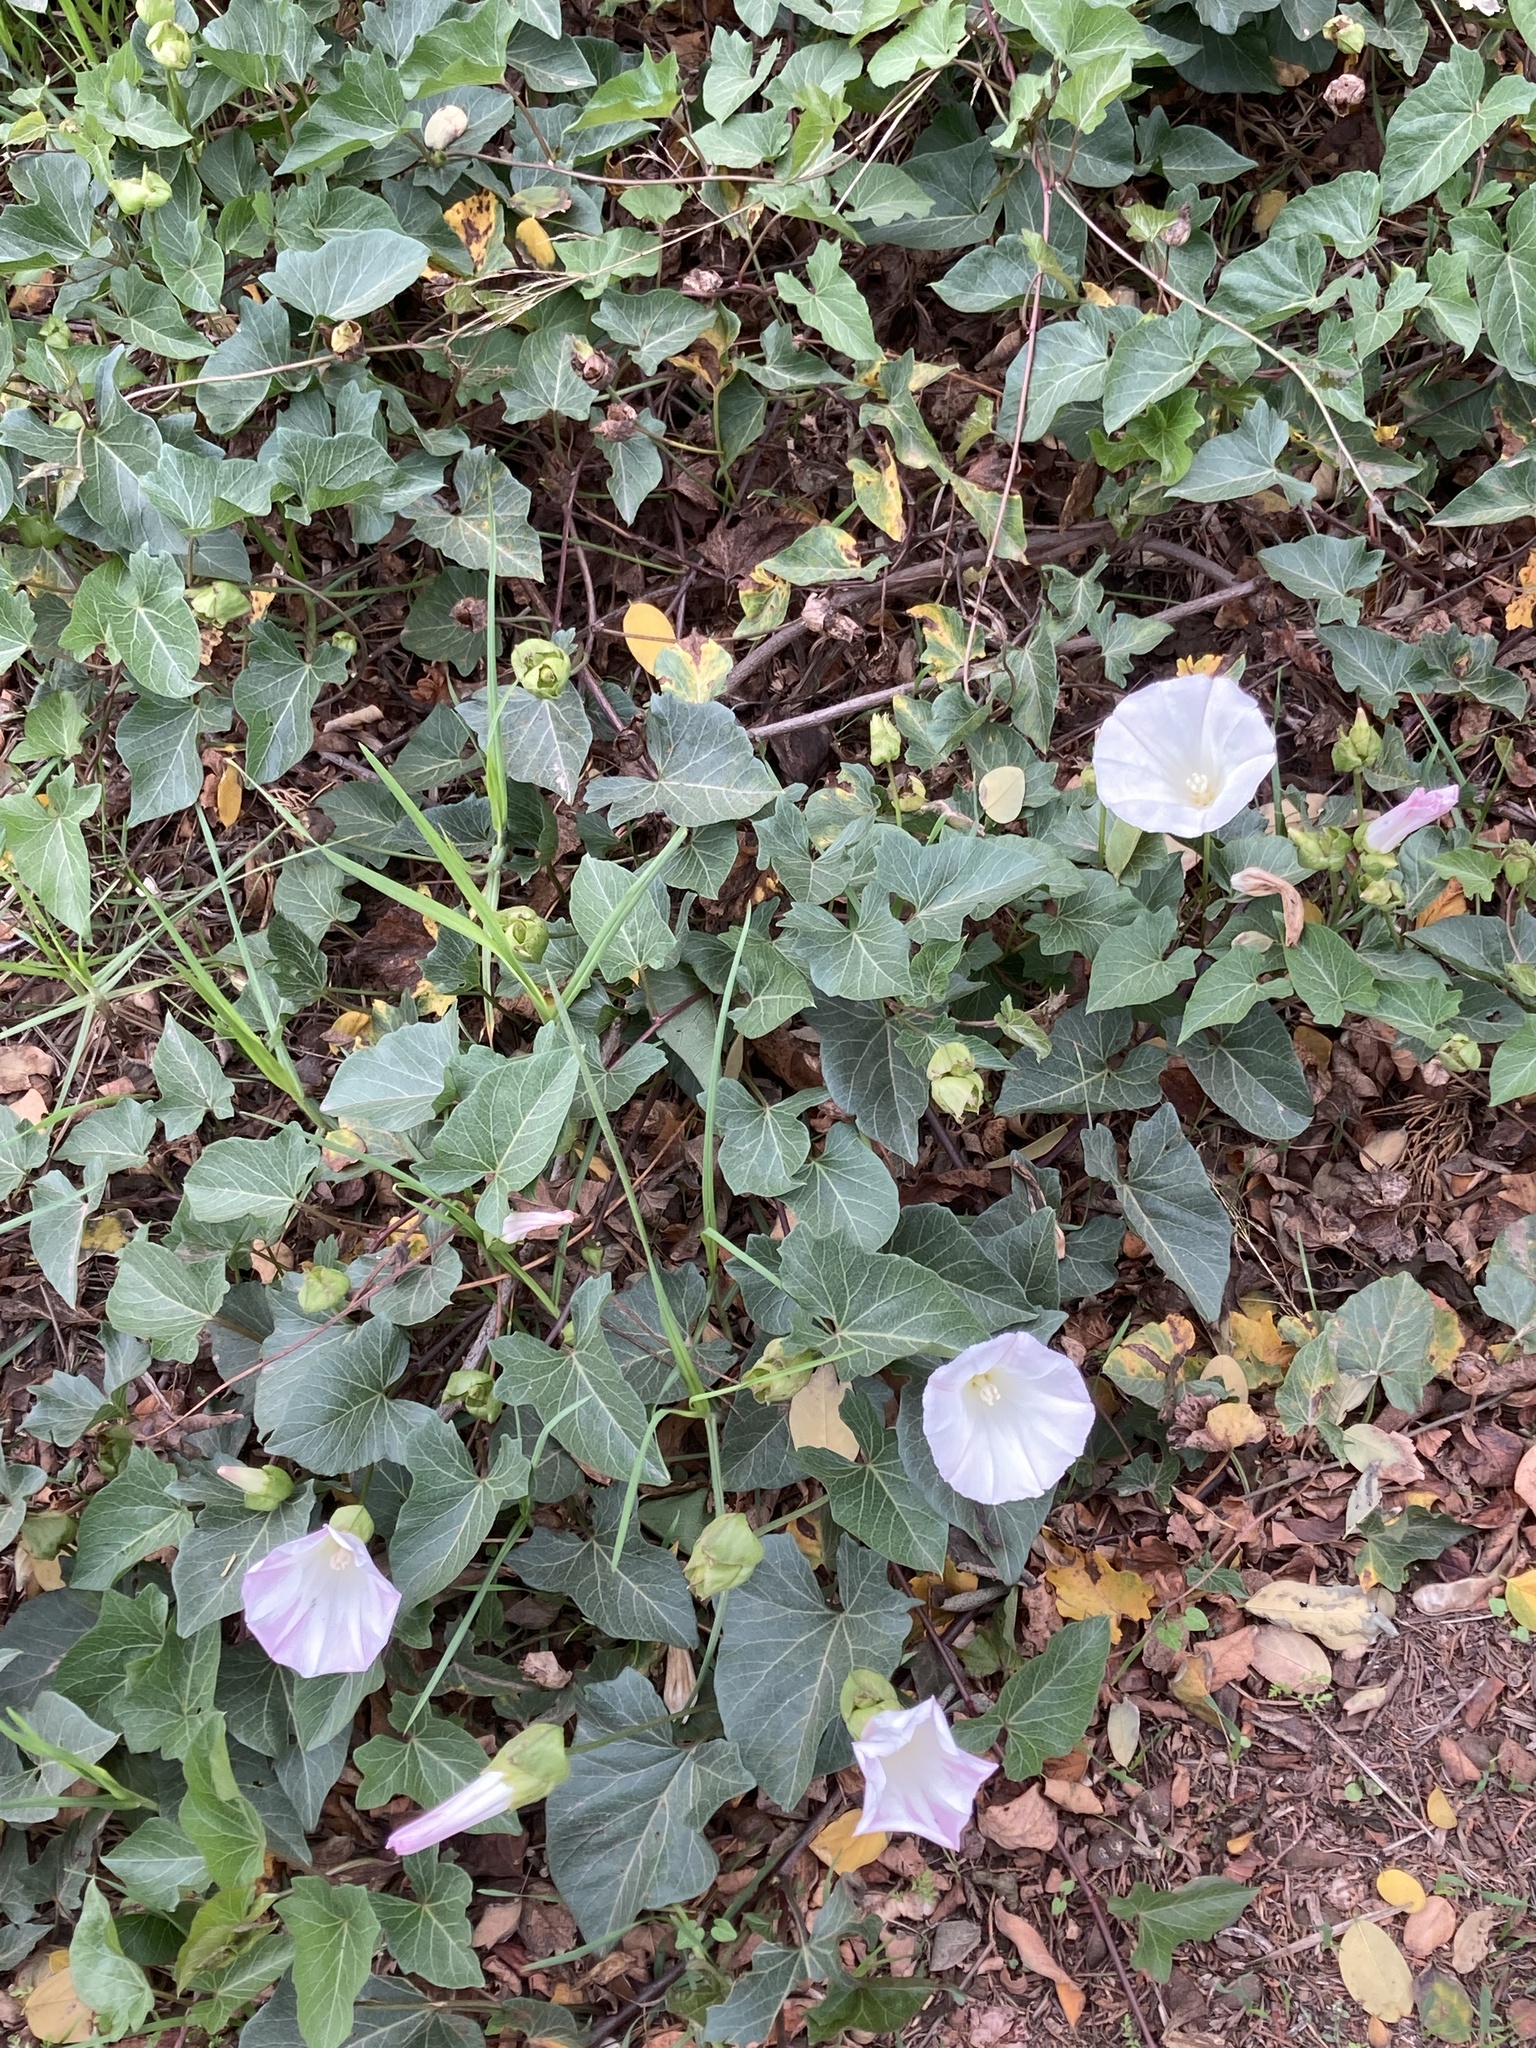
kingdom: Plantae
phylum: Tracheophyta
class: Magnoliopsida
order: Solanales
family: Convolvulaceae
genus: Calystegia
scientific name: Calystegia macrostegia
